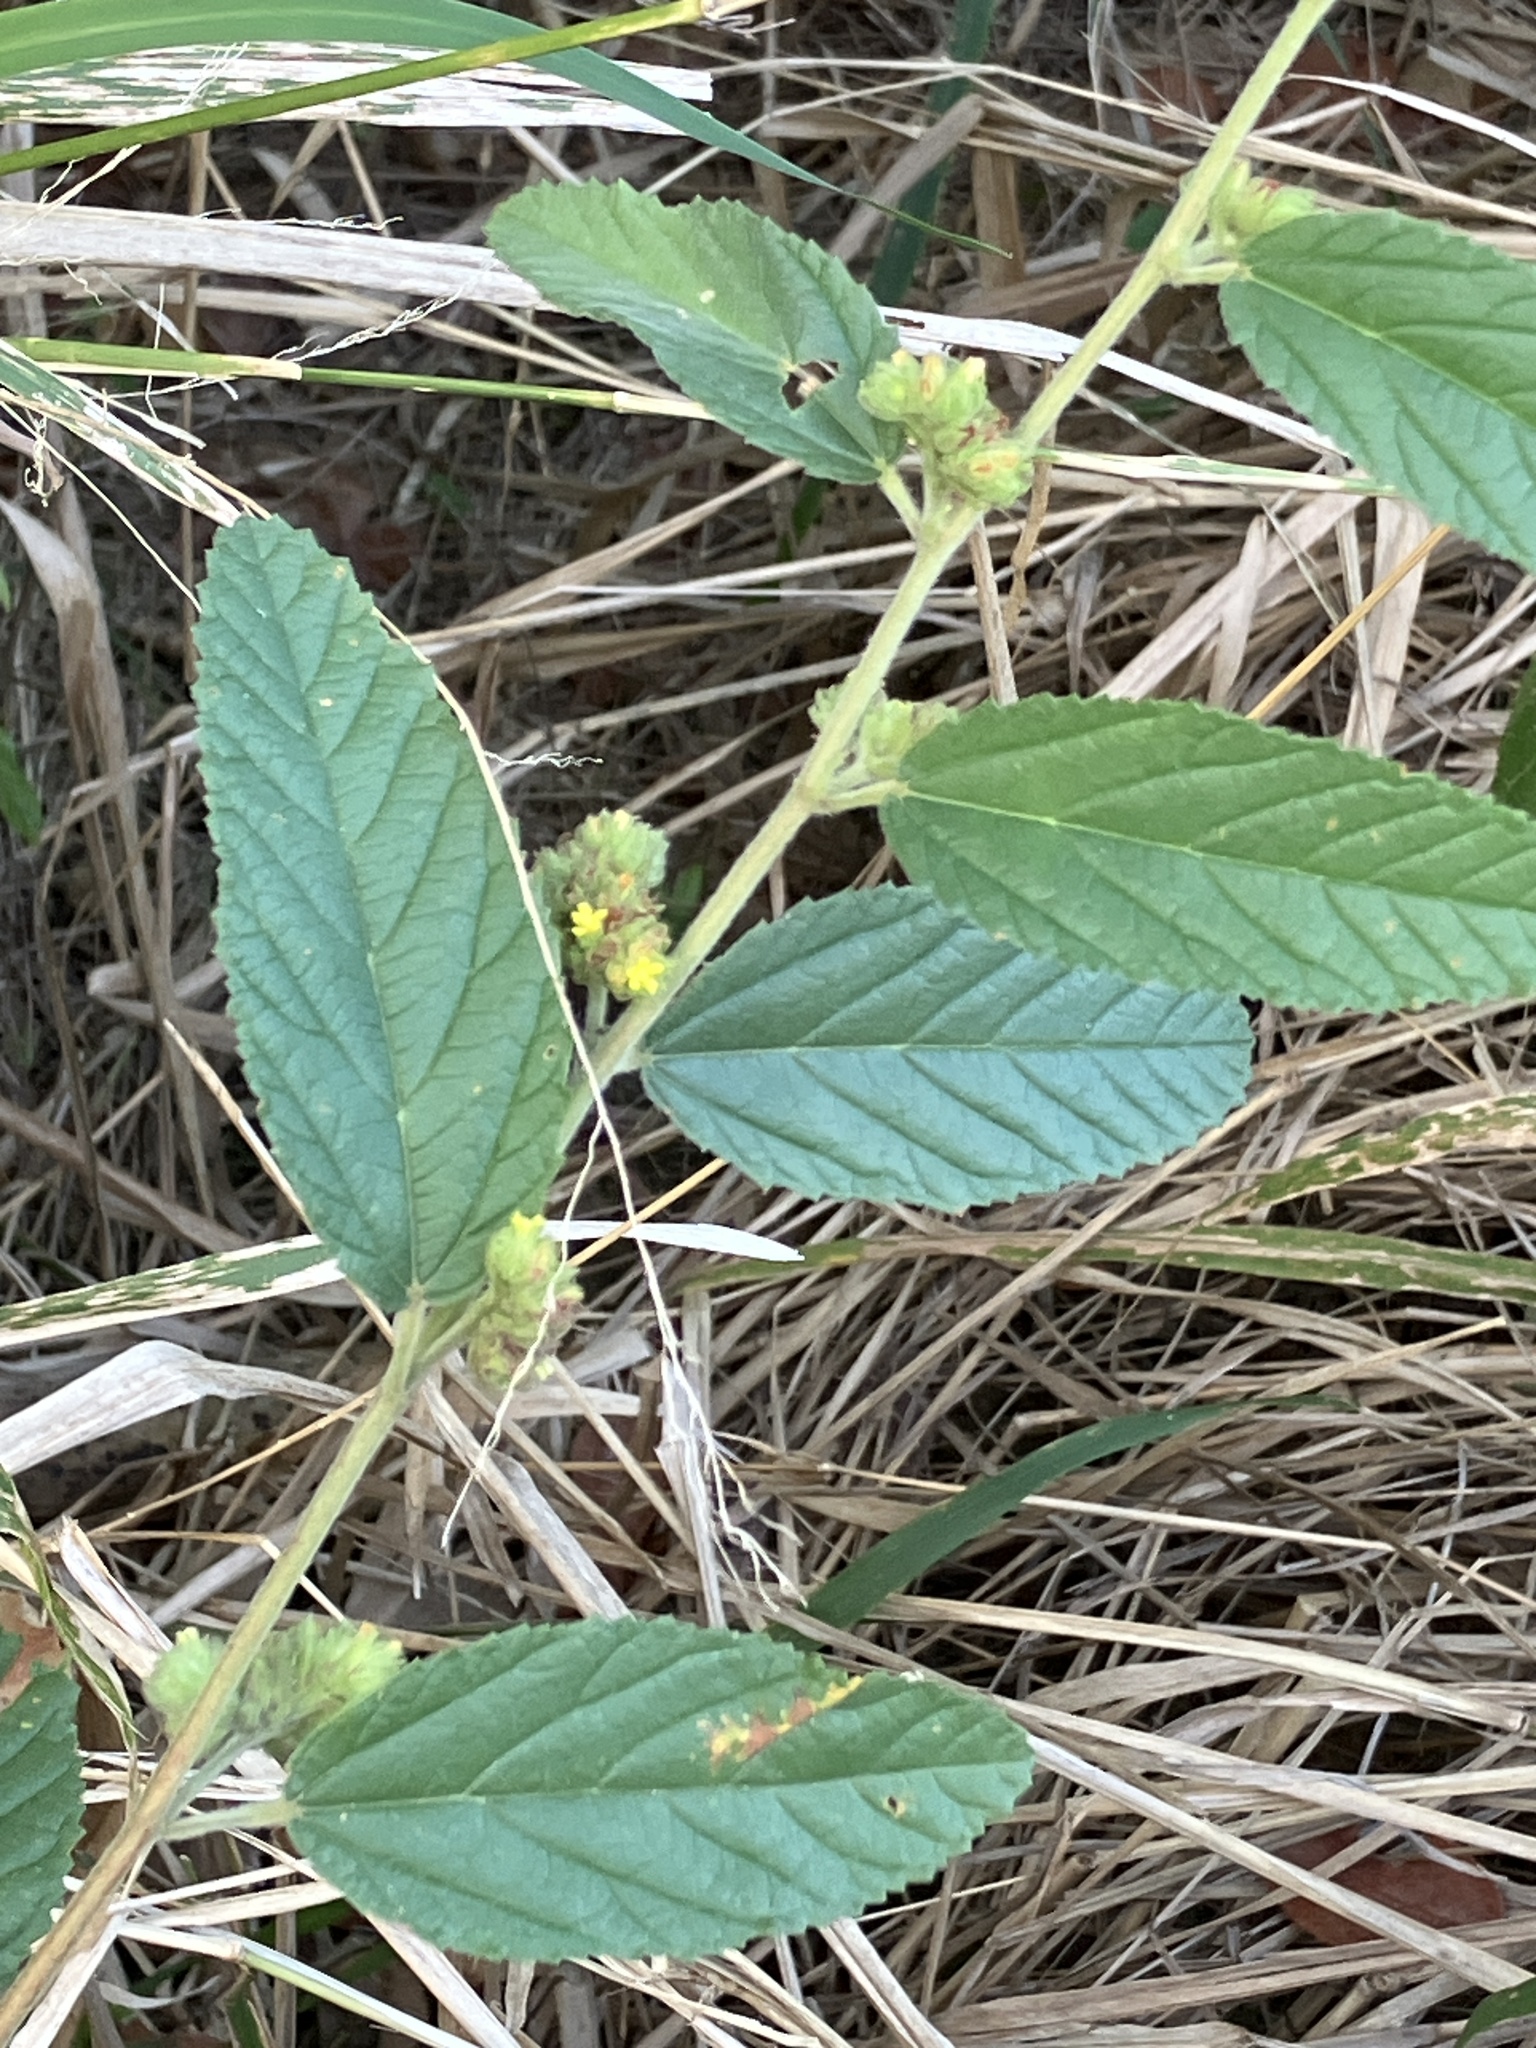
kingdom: Plantae
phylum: Tracheophyta
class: Magnoliopsida
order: Malvales
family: Malvaceae
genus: Waltheria
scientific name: Waltheria indica
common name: Leather-coat
